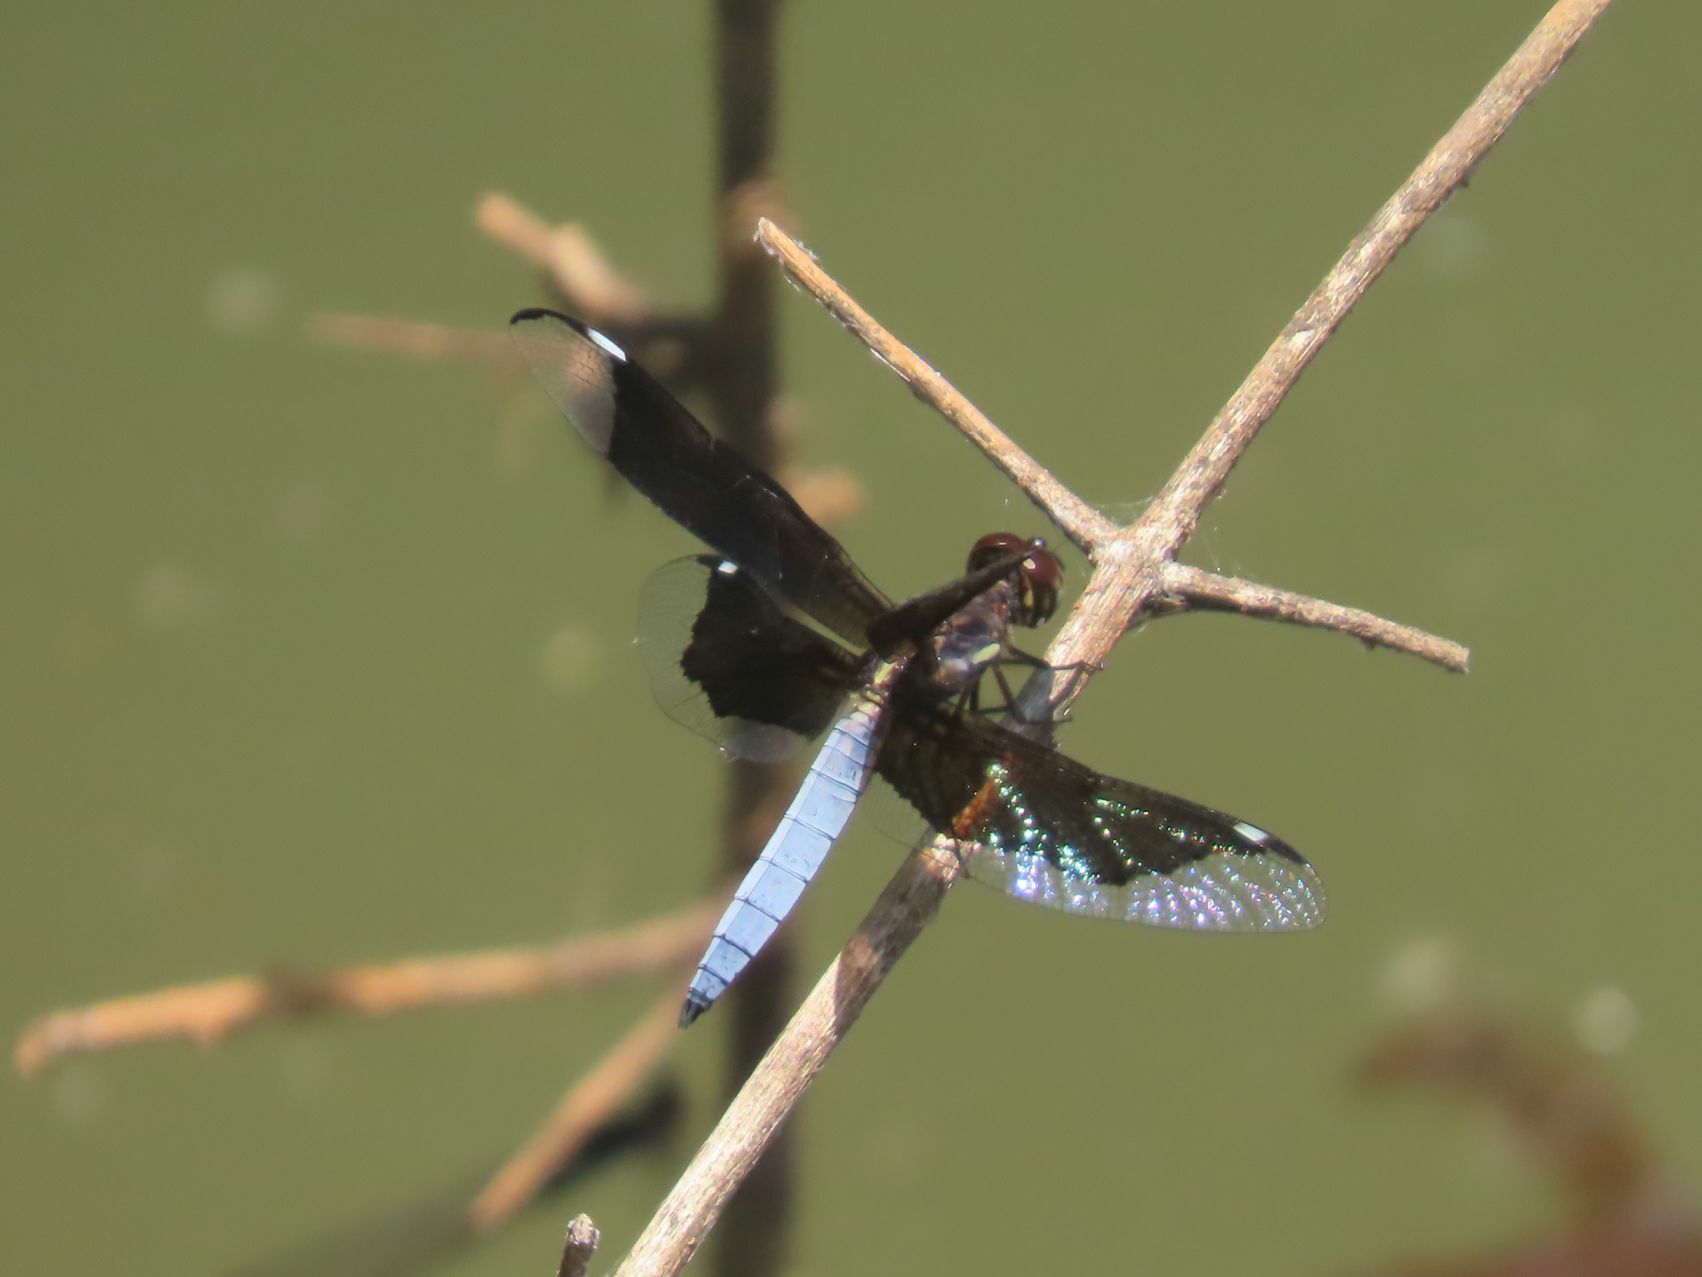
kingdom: Animalia
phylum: Arthropoda
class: Insecta
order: Odonata
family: Libellulidae
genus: Palpopleura
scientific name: Palpopleura lucia
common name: Lucia widow
